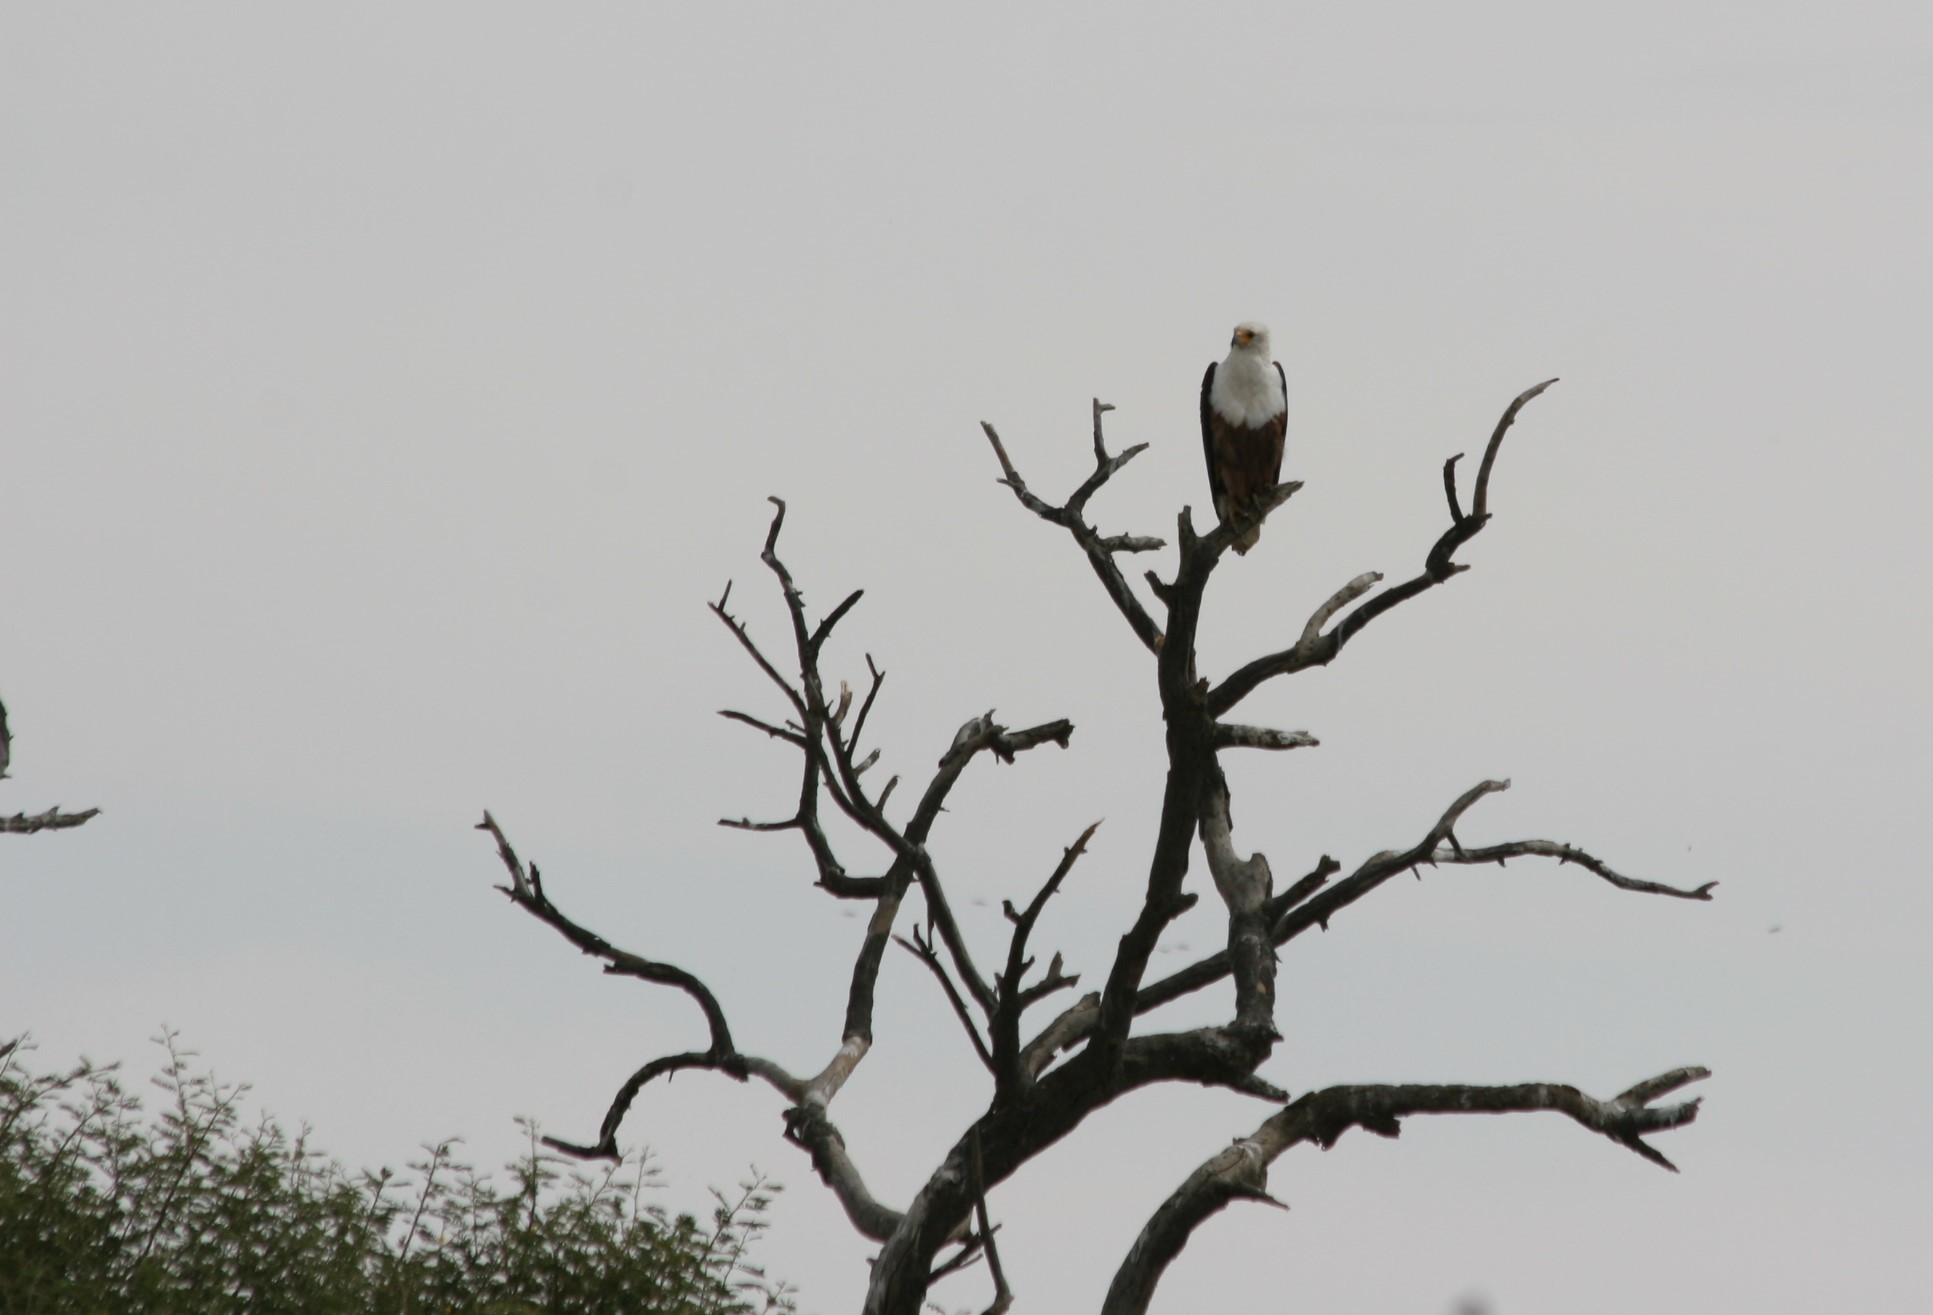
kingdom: Animalia
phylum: Chordata
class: Aves
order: Accipitriformes
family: Accipitridae
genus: Haliaeetus
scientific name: Haliaeetus vocifer
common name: African fish eagle
